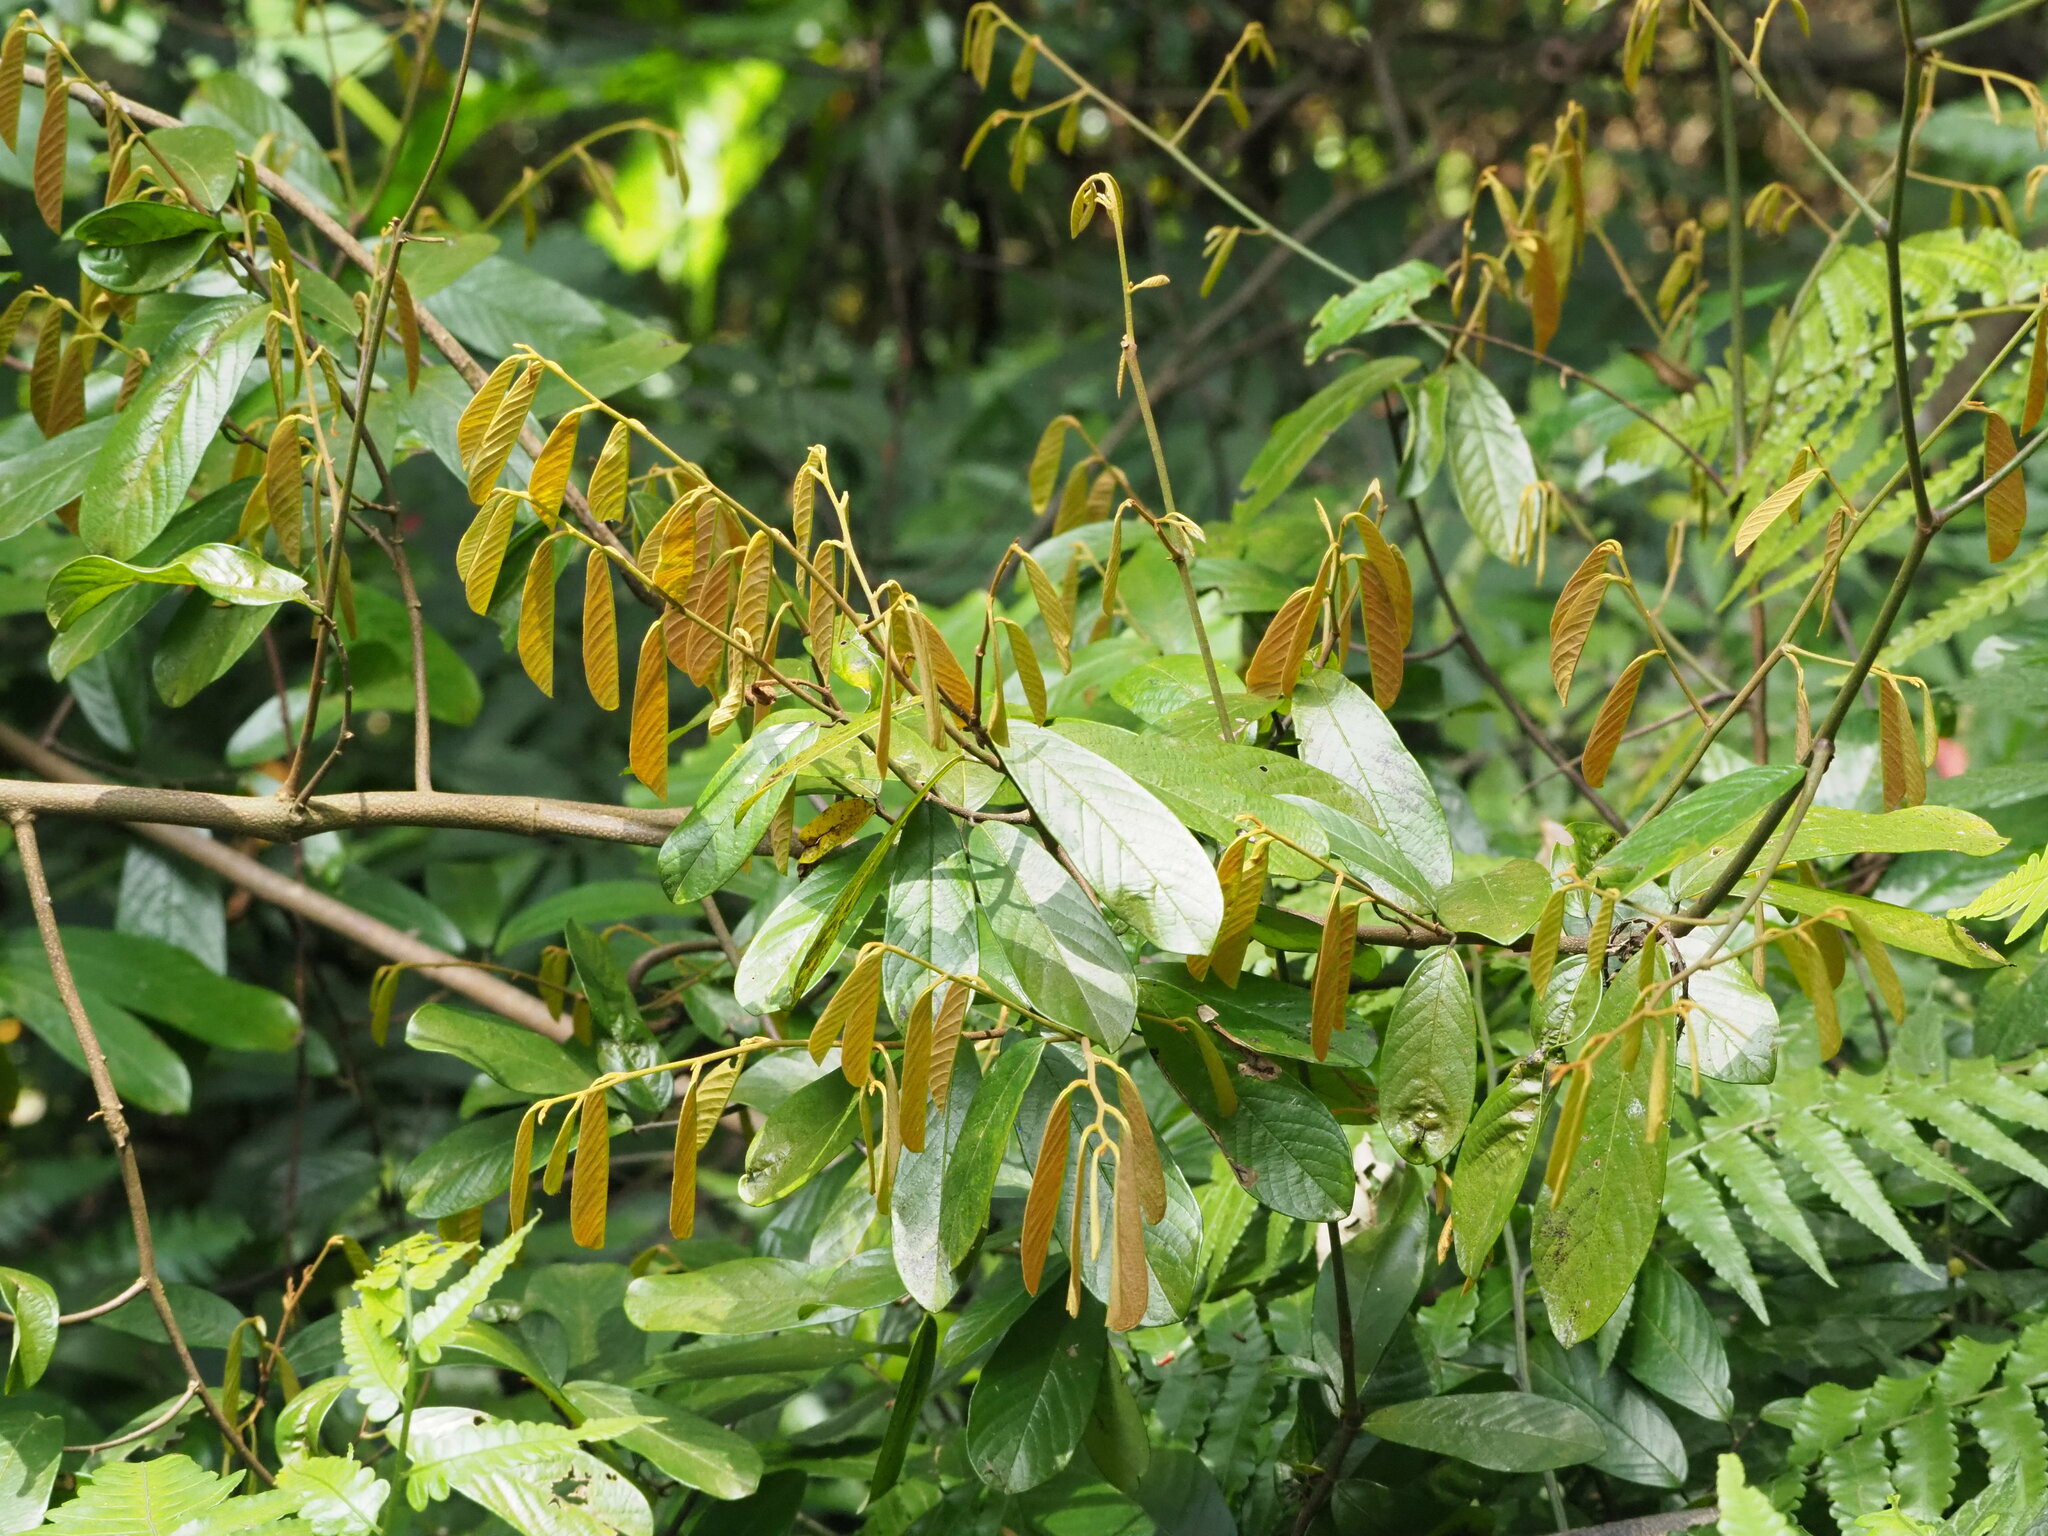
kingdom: Plantae
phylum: Tracheophyta
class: Magnoliopsida
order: Magnoliales
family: Annonaceae
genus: Fissistigma
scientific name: Fissistigma oldhamii
